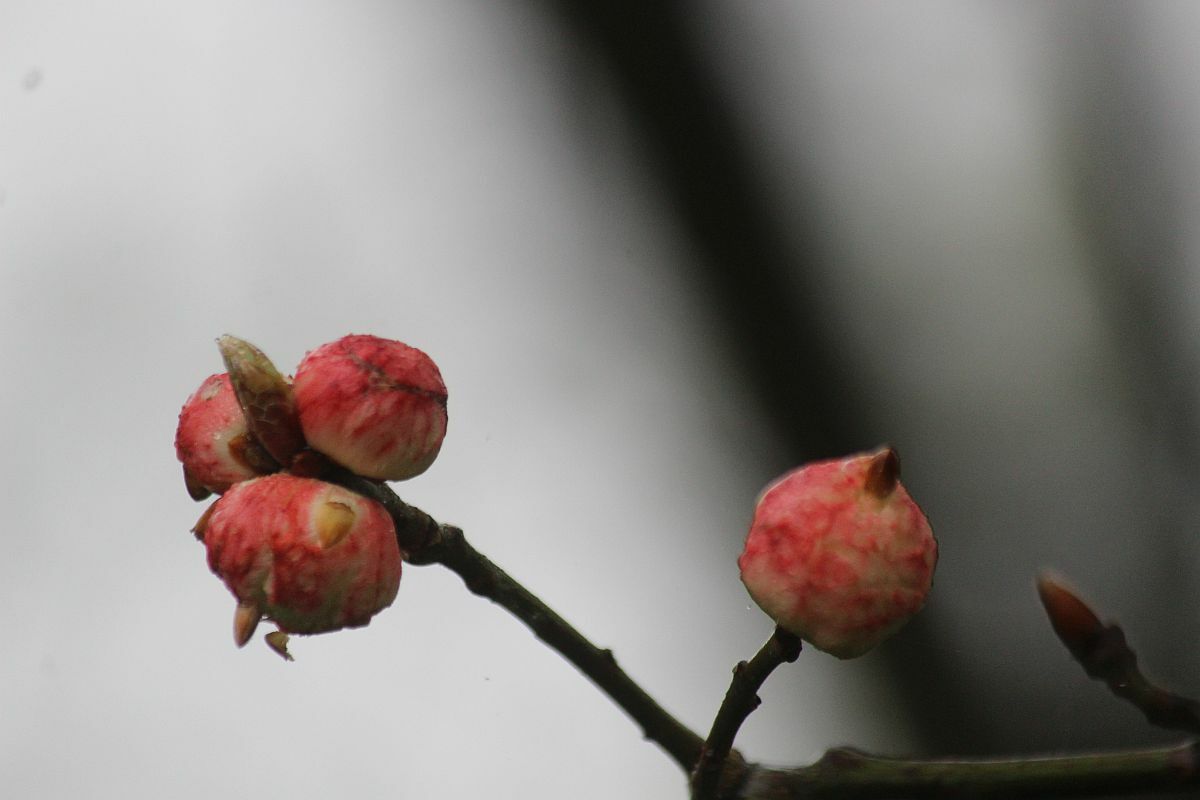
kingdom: Animalia
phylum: Arthropoda
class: Insecta
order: Hymenoptera
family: Cynipidae
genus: Biorhiza
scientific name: Biorhiza pallida
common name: Oak apple
